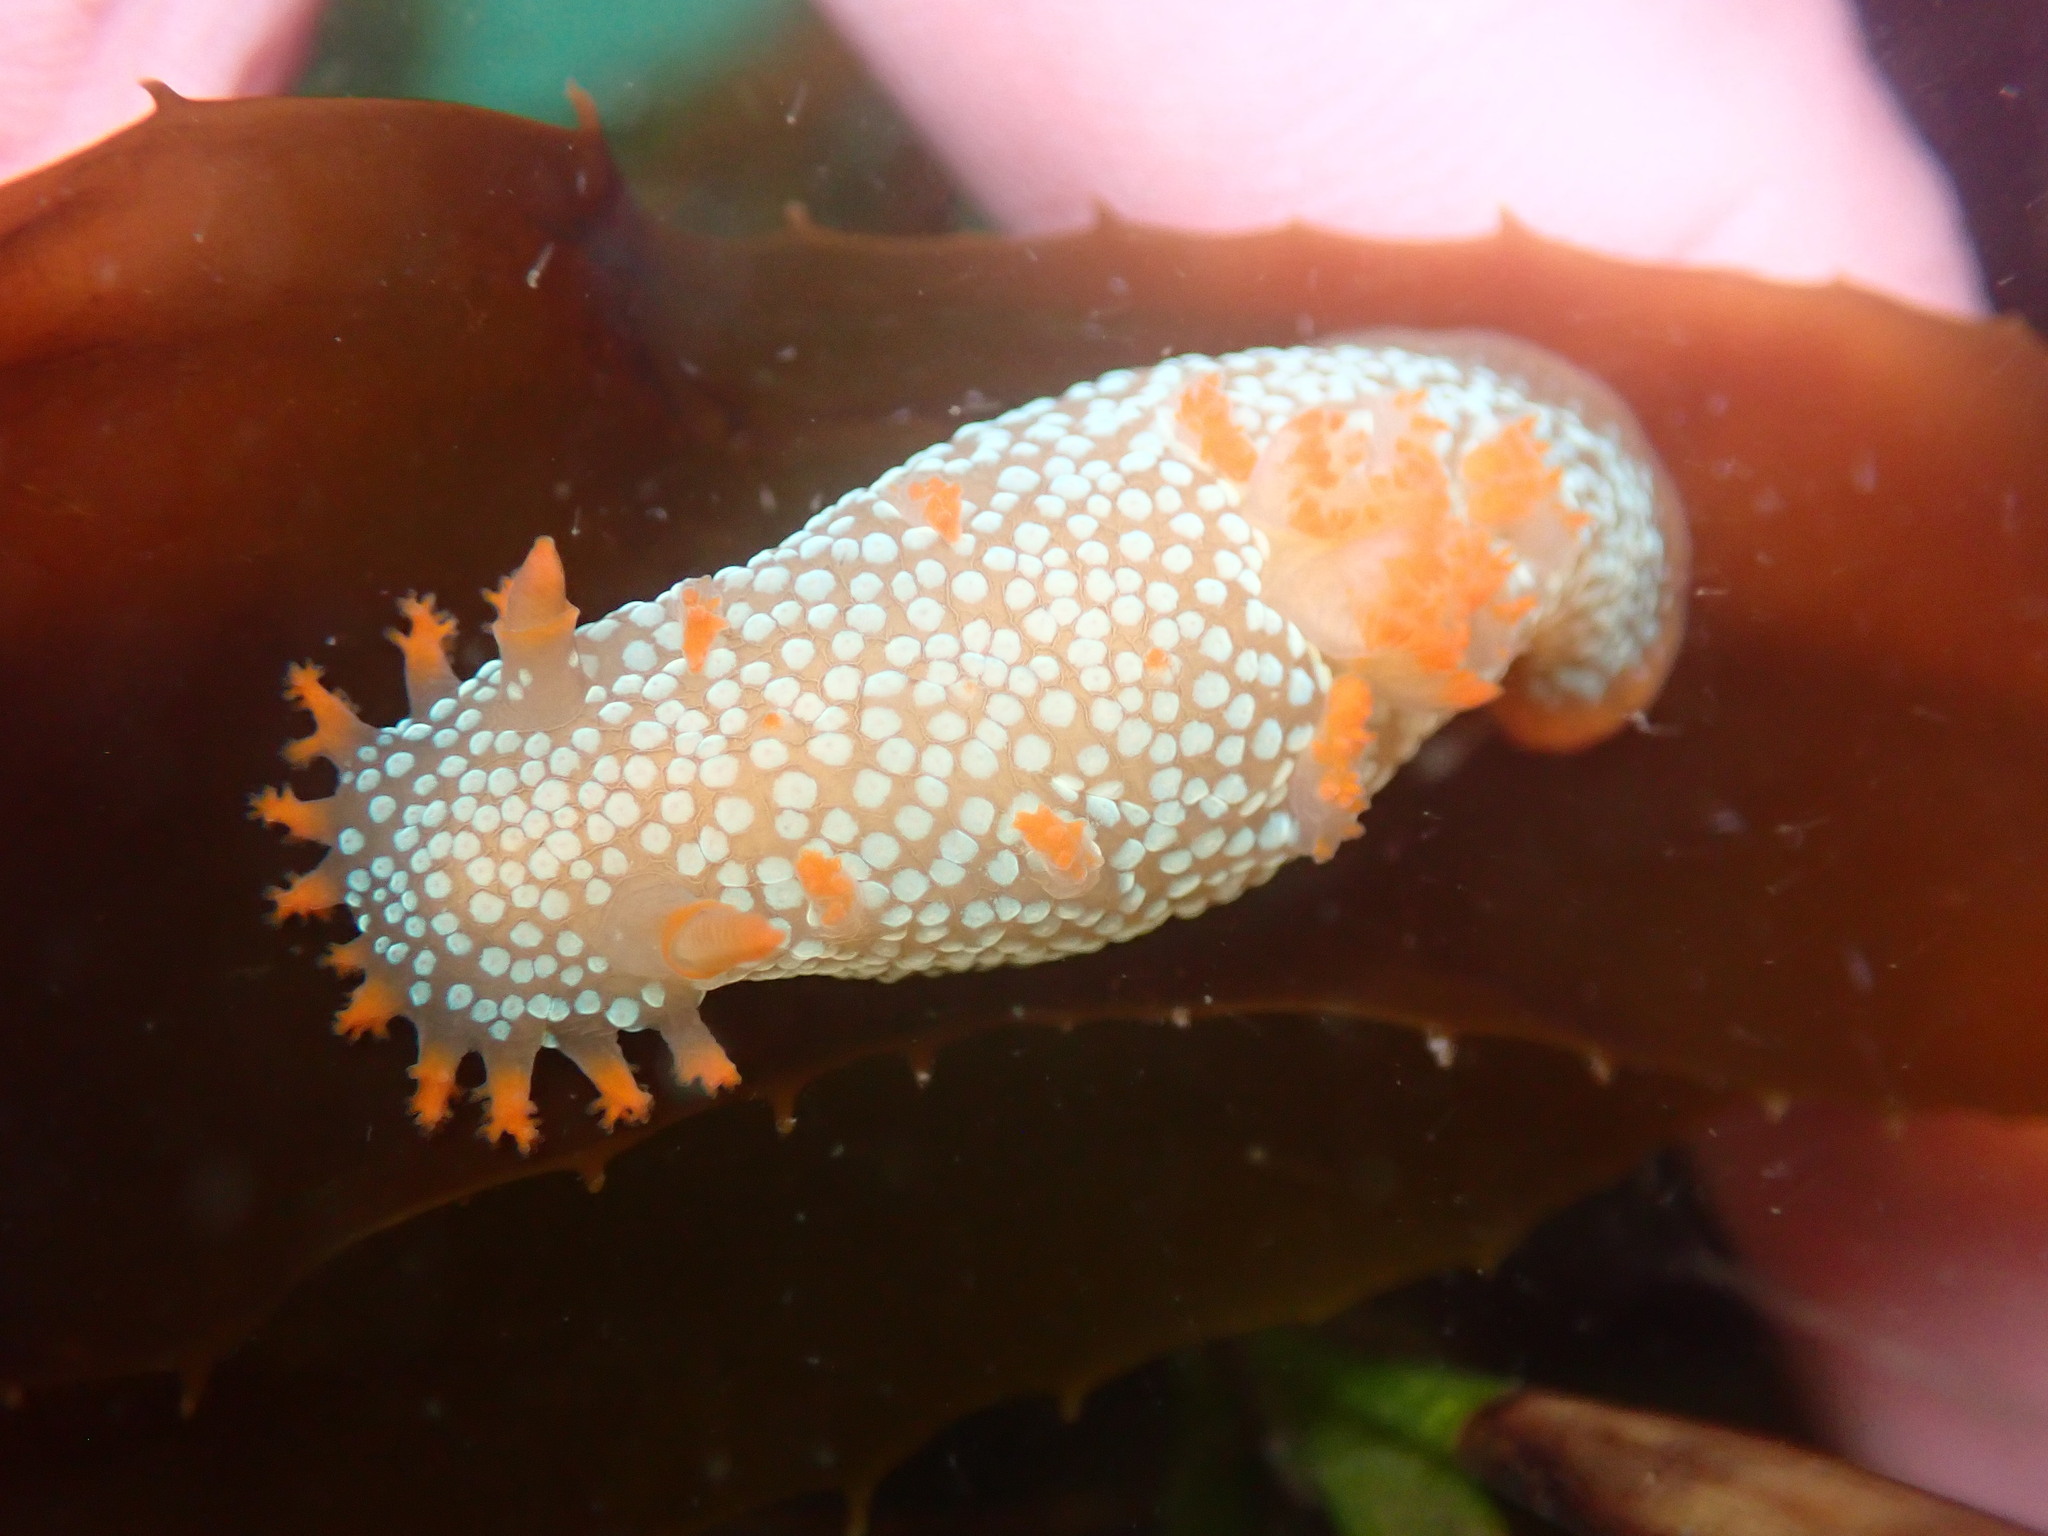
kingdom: Animalia
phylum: Mollusca
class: Gastropoda
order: Nudibranchia
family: Polyceridae
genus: Triopha
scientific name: Triopha maculata
